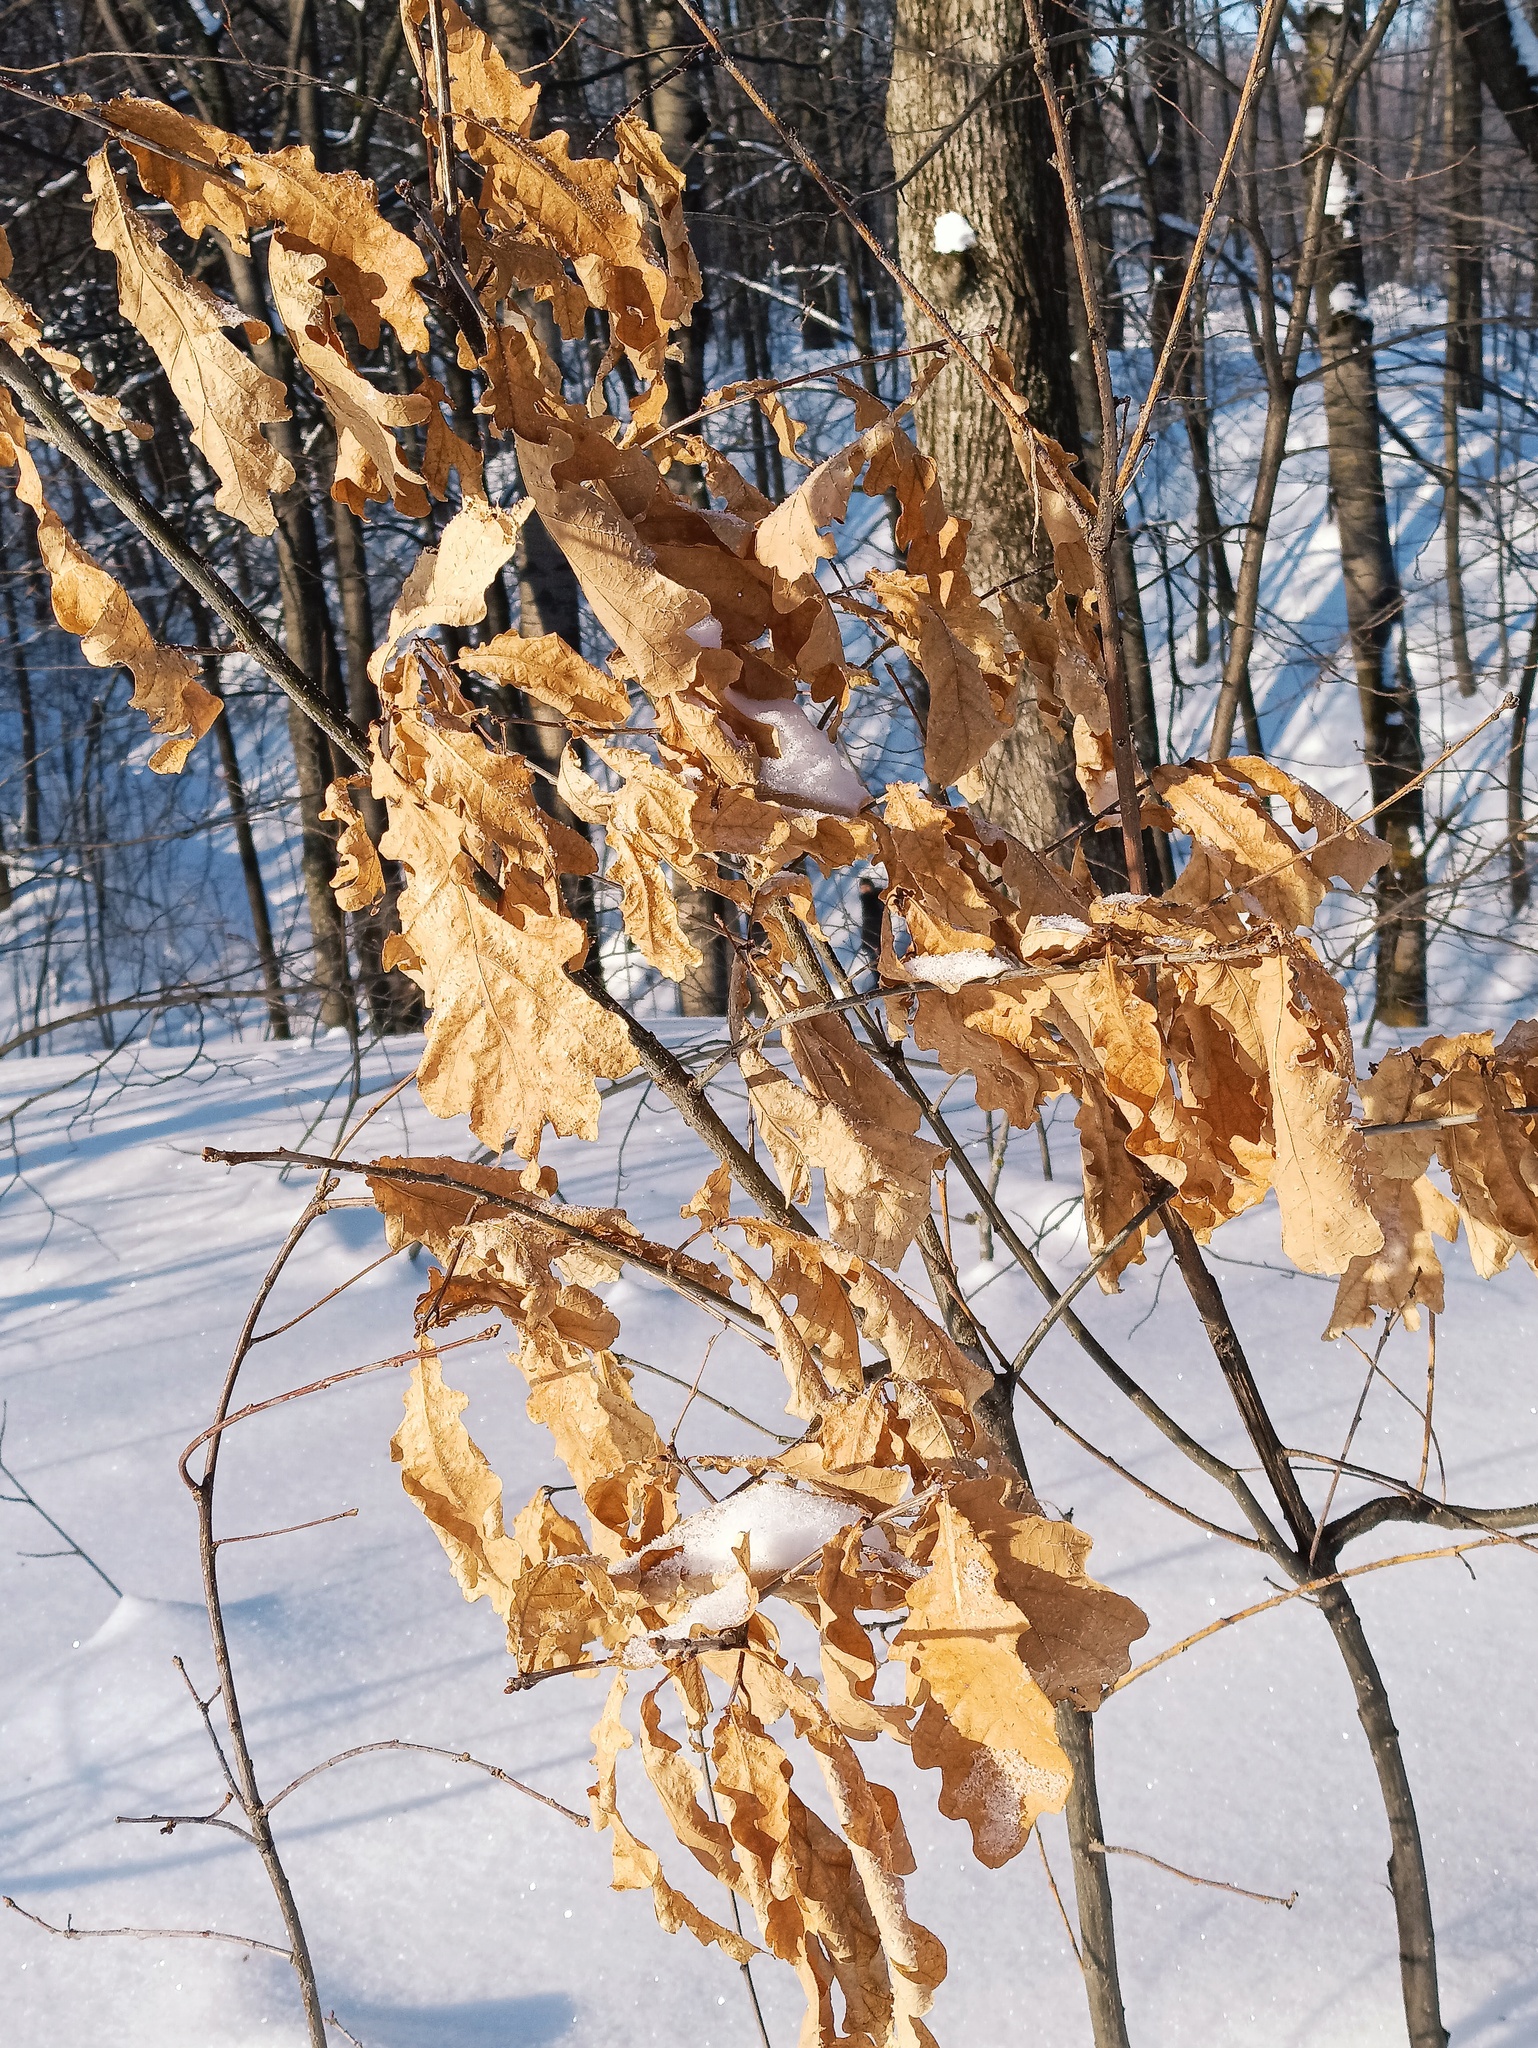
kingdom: Plantae
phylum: Tracheophyta
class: Magnoliopsida
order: Fagales
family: Fagaceae
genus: Quercus
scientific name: Quercus robur
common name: Pedunculate oak
